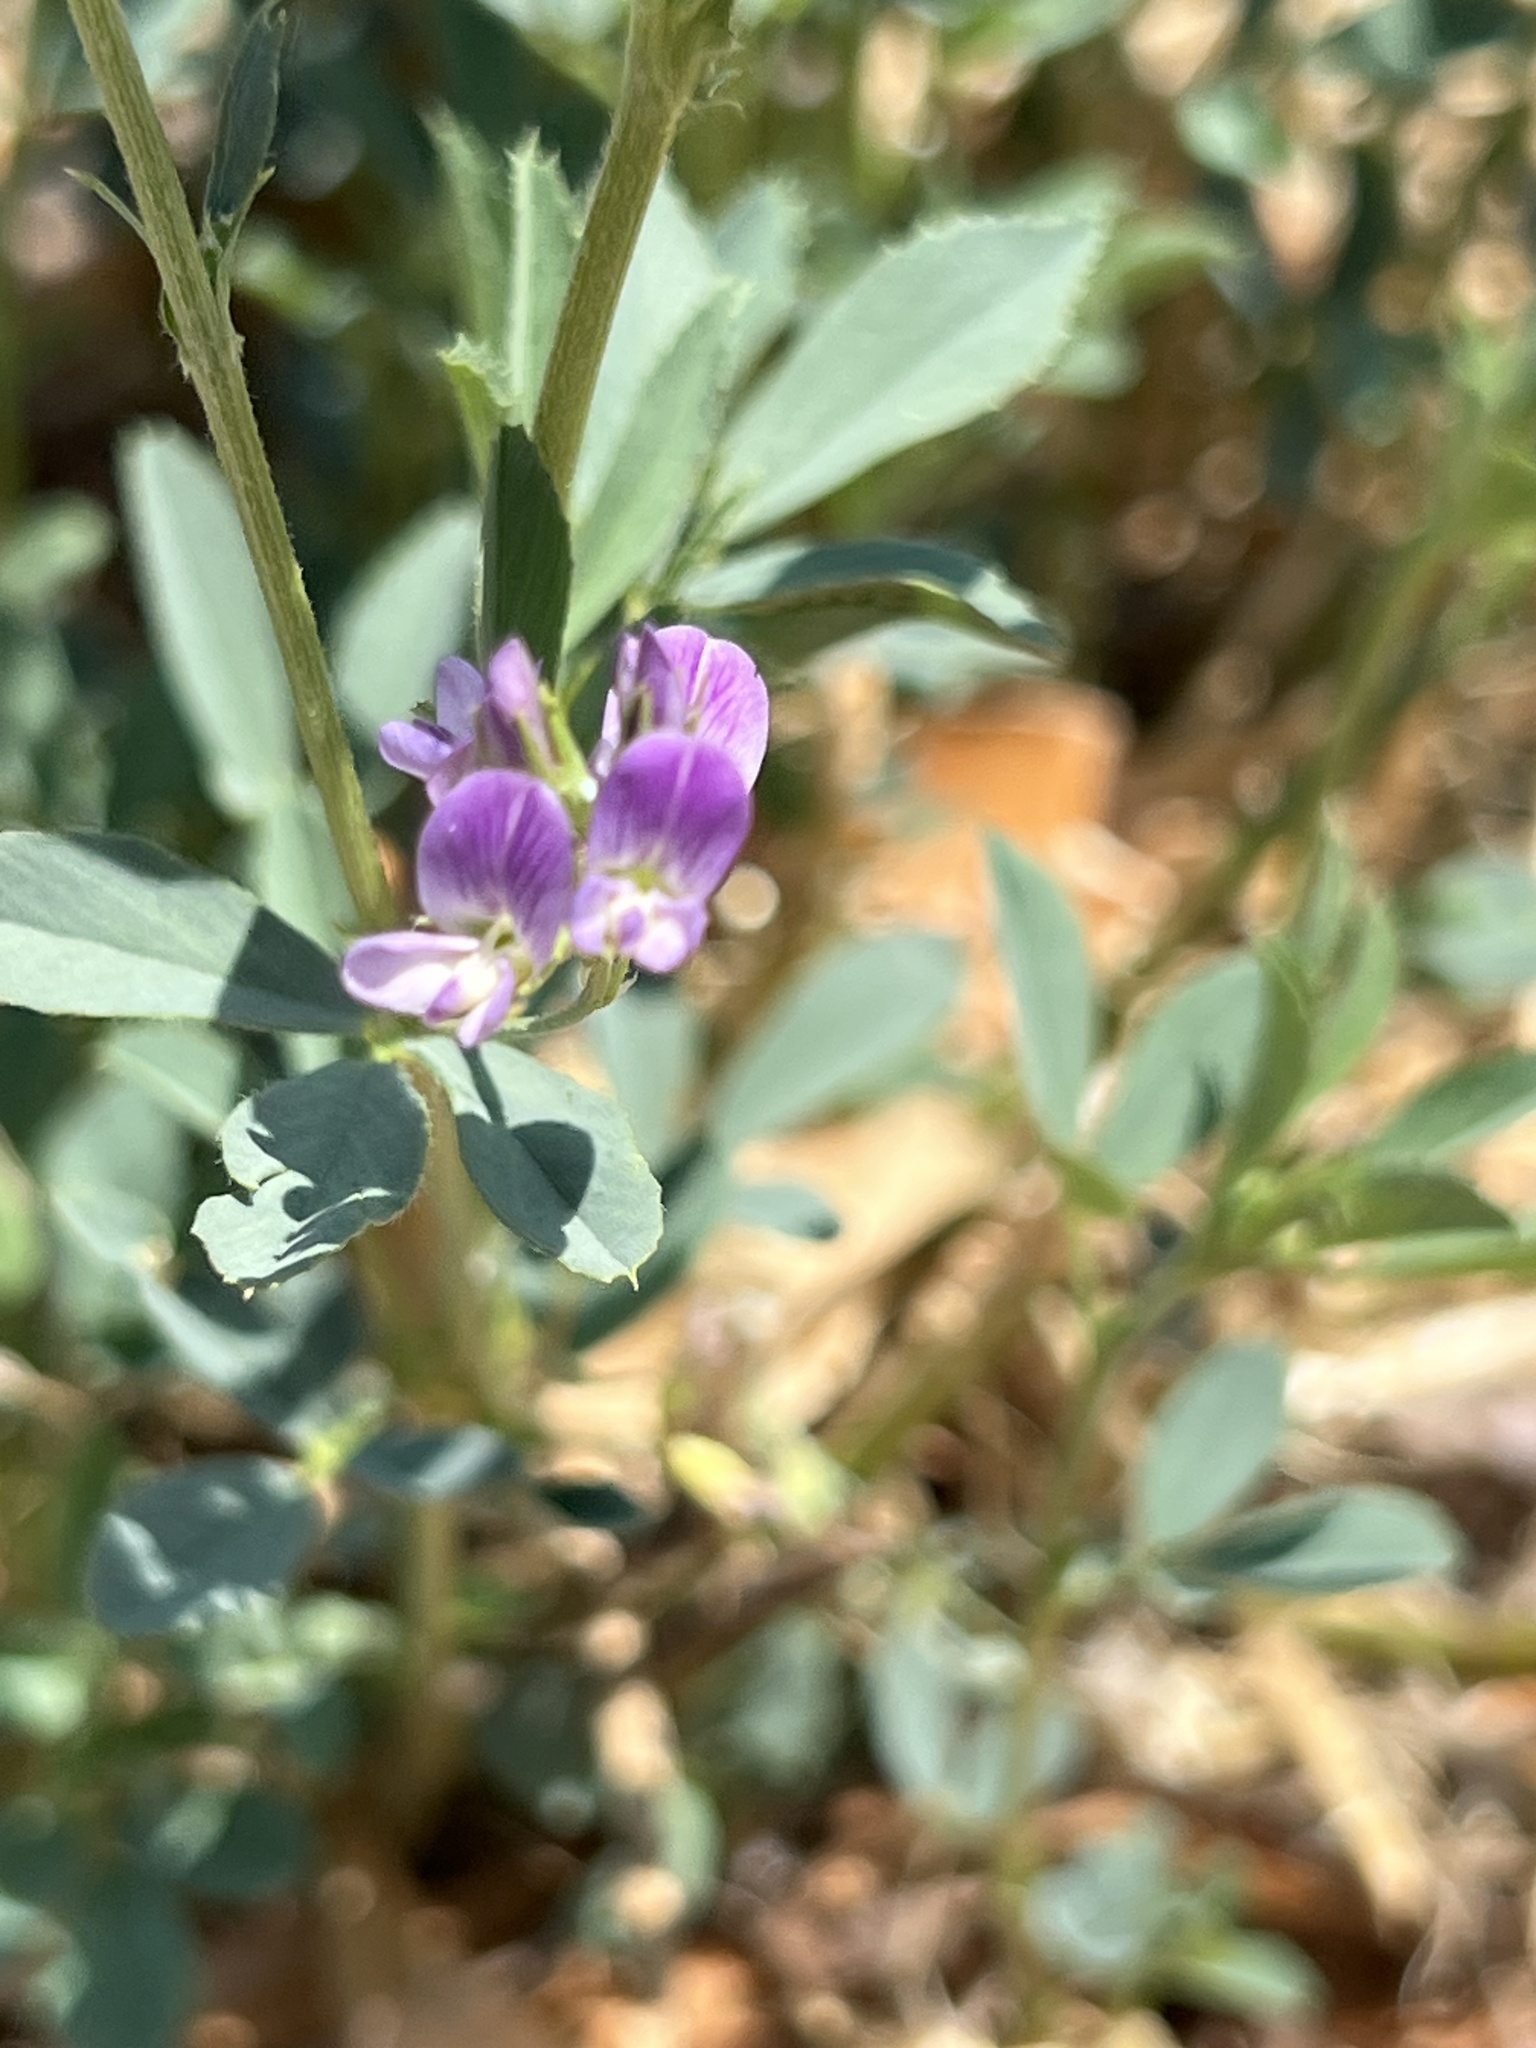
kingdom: Plantae
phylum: Tracheophyta
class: Magnoliopsida
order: Fabales
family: Fabaceae
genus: Medicago
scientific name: Medicago sativa
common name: Alfalfa
